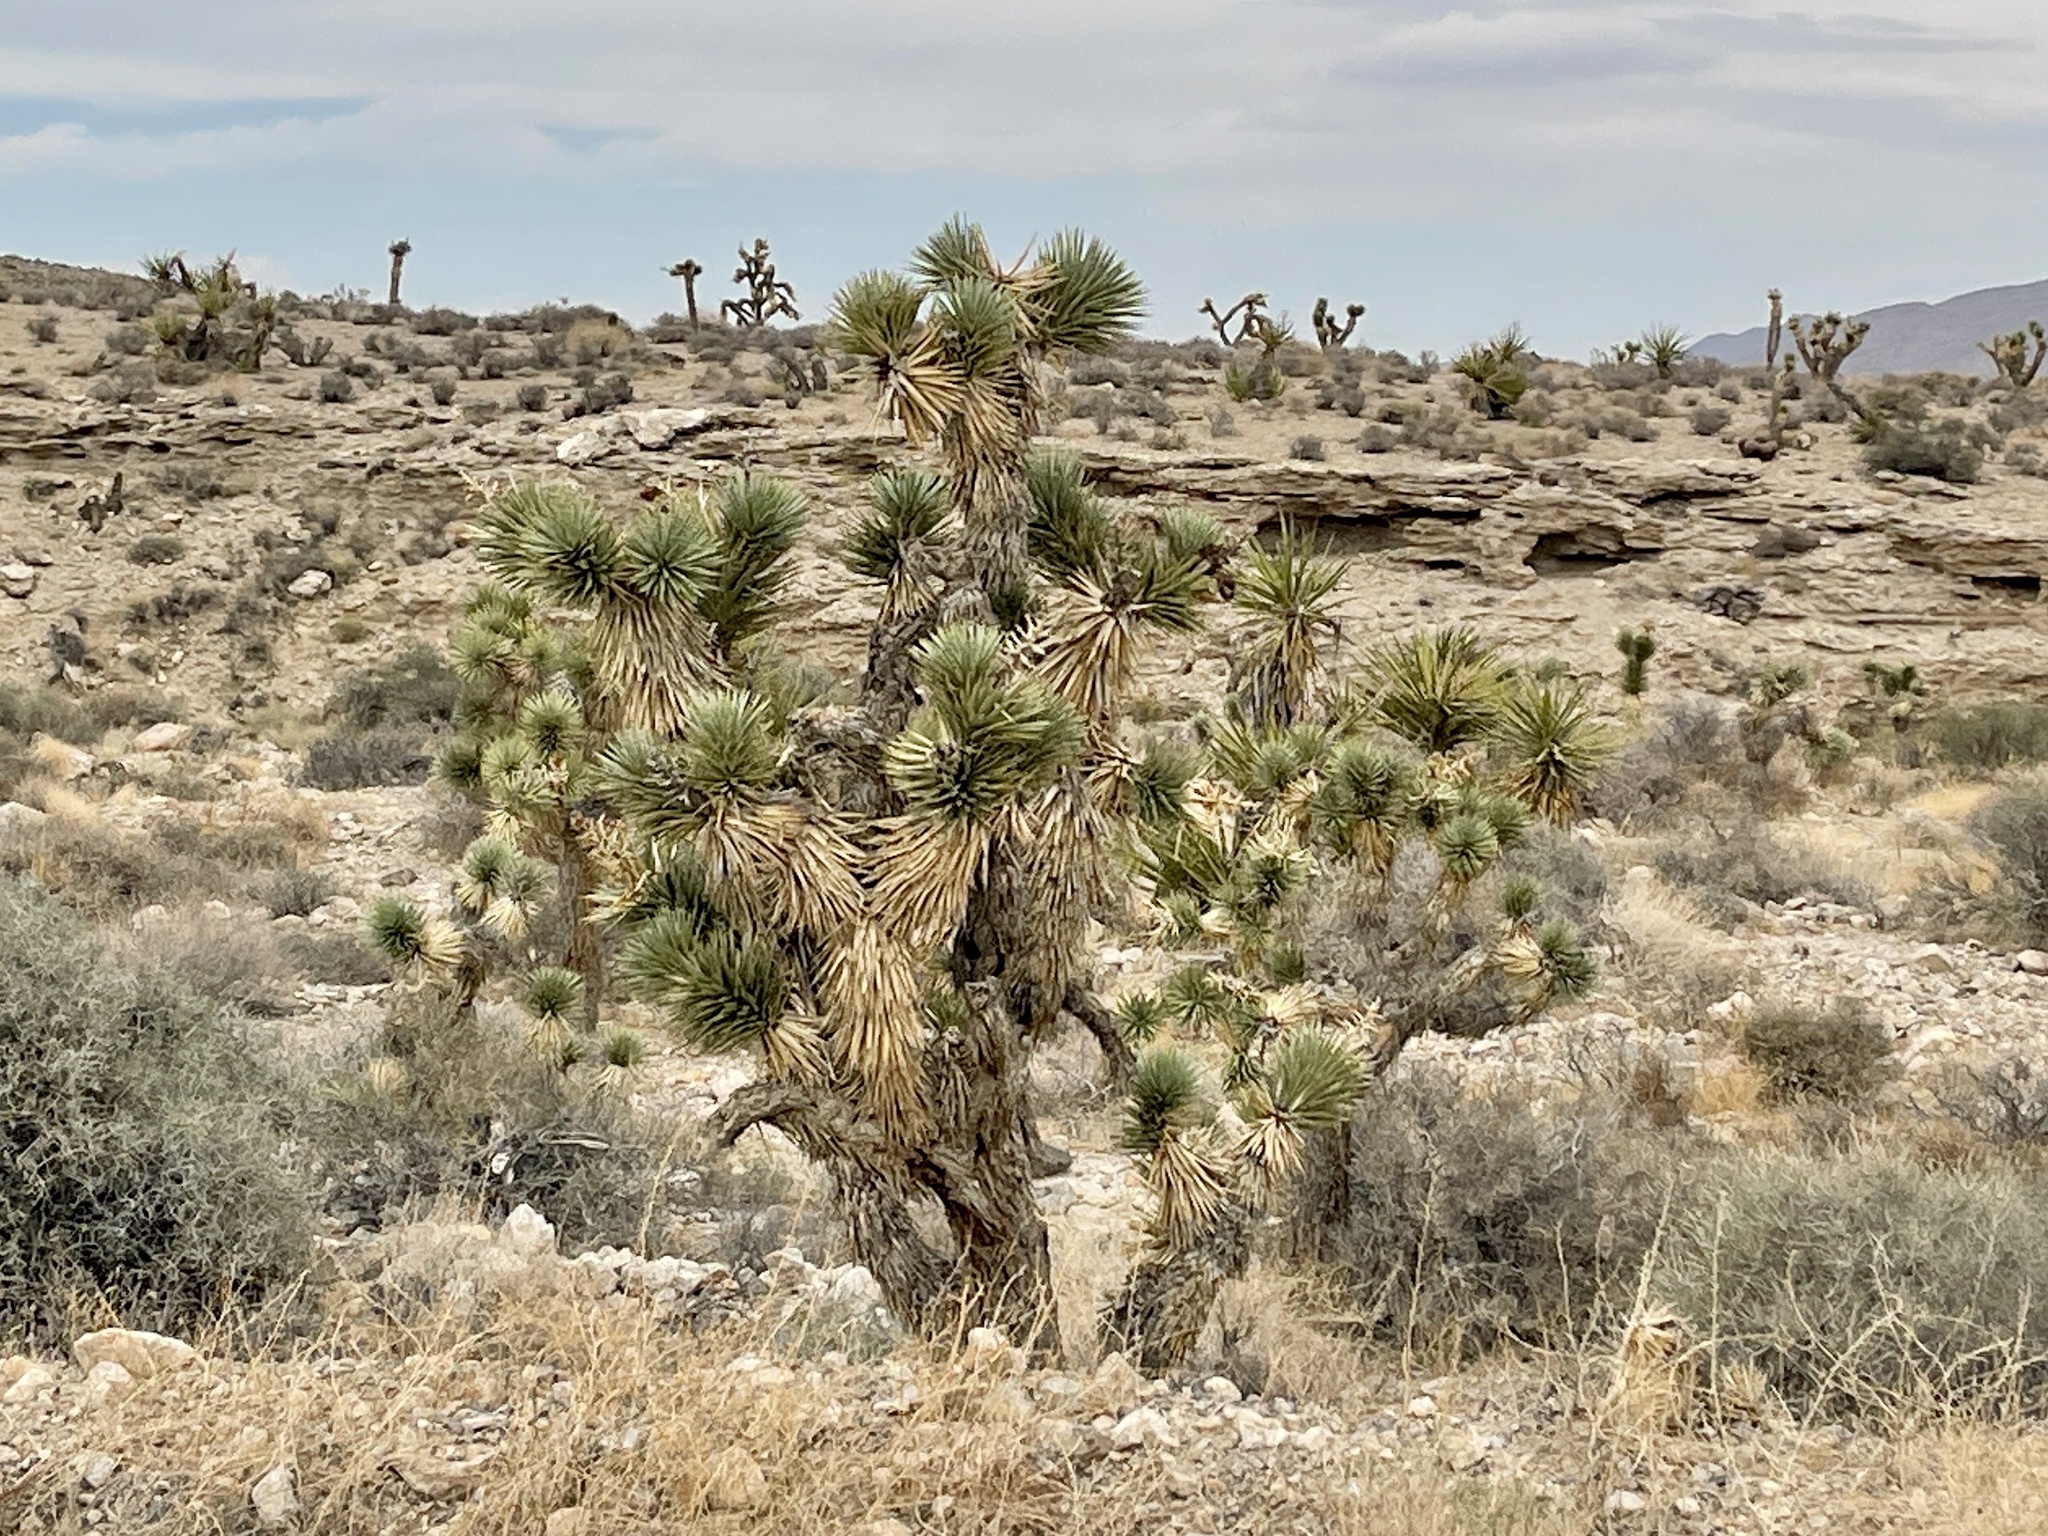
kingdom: Plantae
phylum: Tracheophyta
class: Liliopsida
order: Asparagales
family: Asparagaceae
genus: Yucca
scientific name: Yucca brevifolia
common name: Joshua tree
